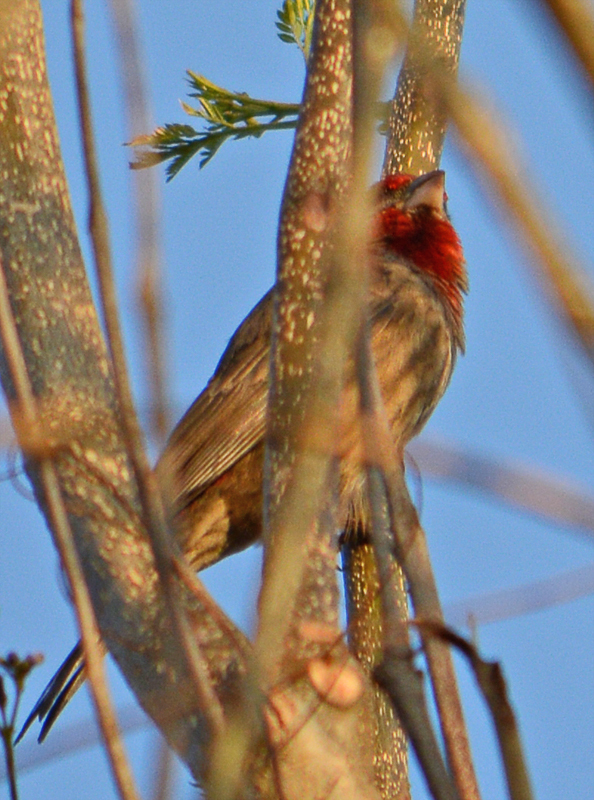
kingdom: Animalia
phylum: Chordata
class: Aves
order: Passeriformes
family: Fringillidae
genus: Haemorhous
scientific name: Haemorhous mexicanus
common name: House finch
